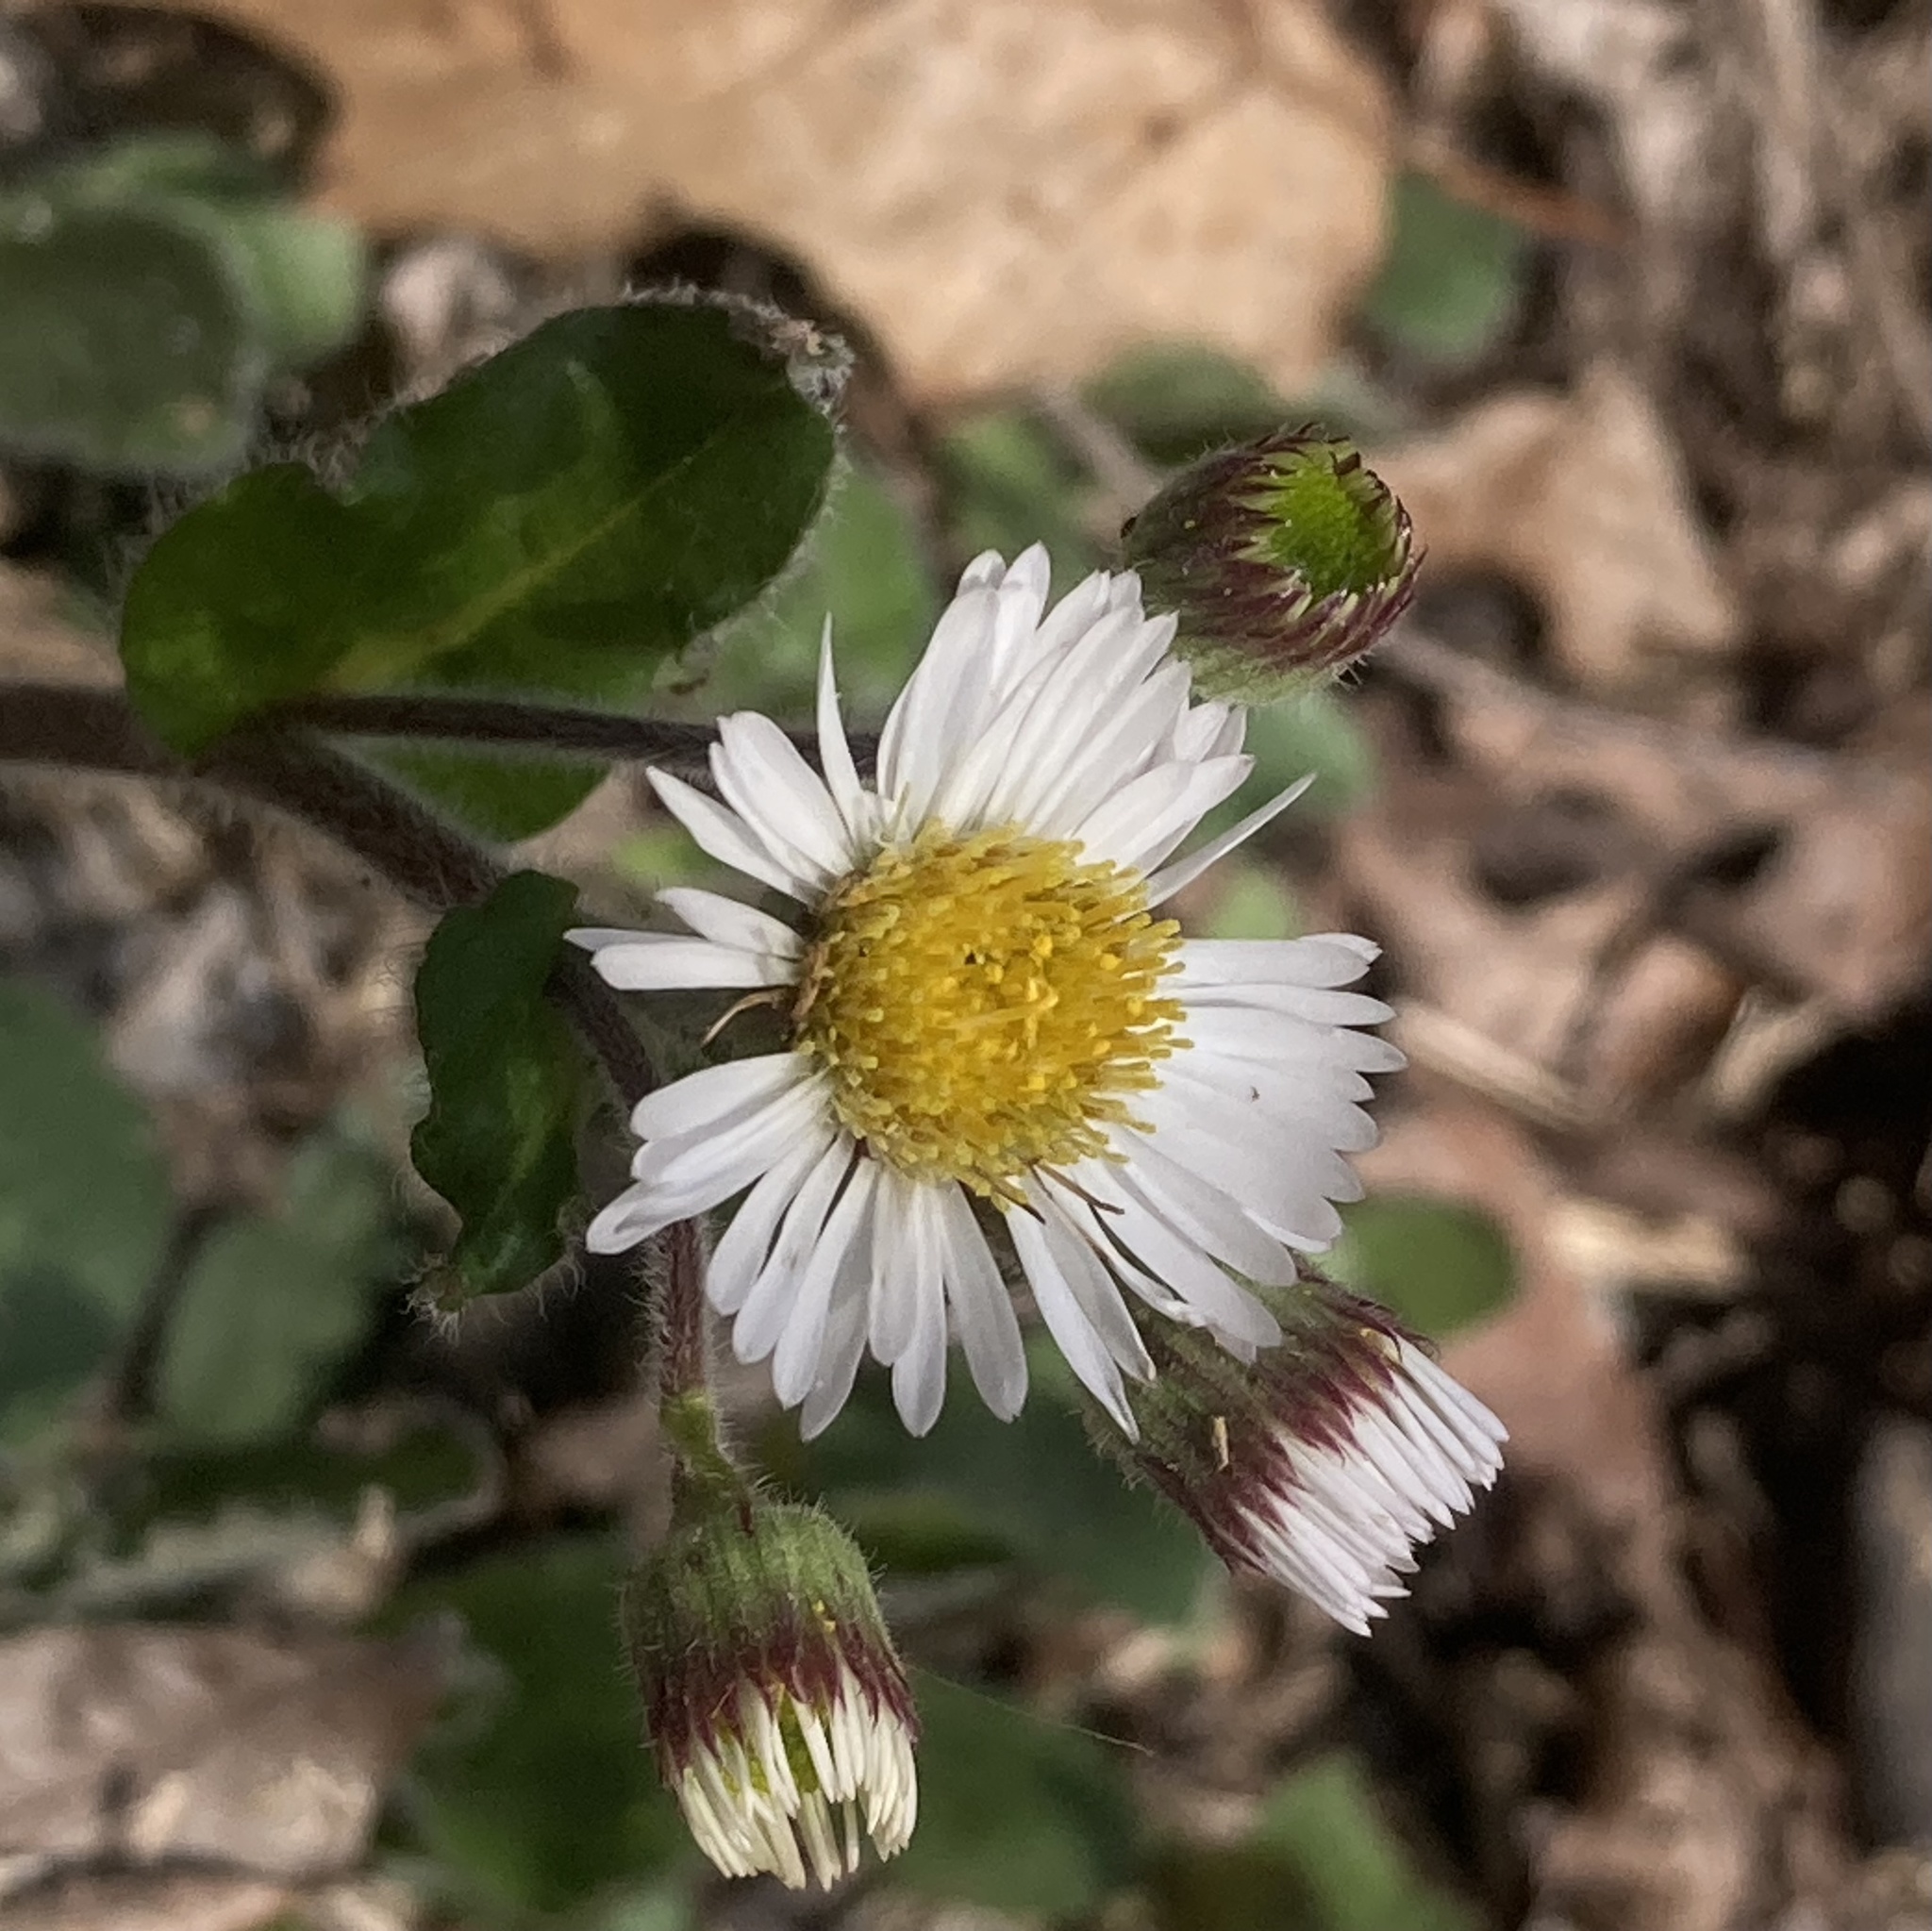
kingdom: Plantae
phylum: Tracheophyta
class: Magnoliopsida
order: Asterales
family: Asteraceae
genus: Erigeron
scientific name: Erigeron pulchellus
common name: Hairy fleabane
